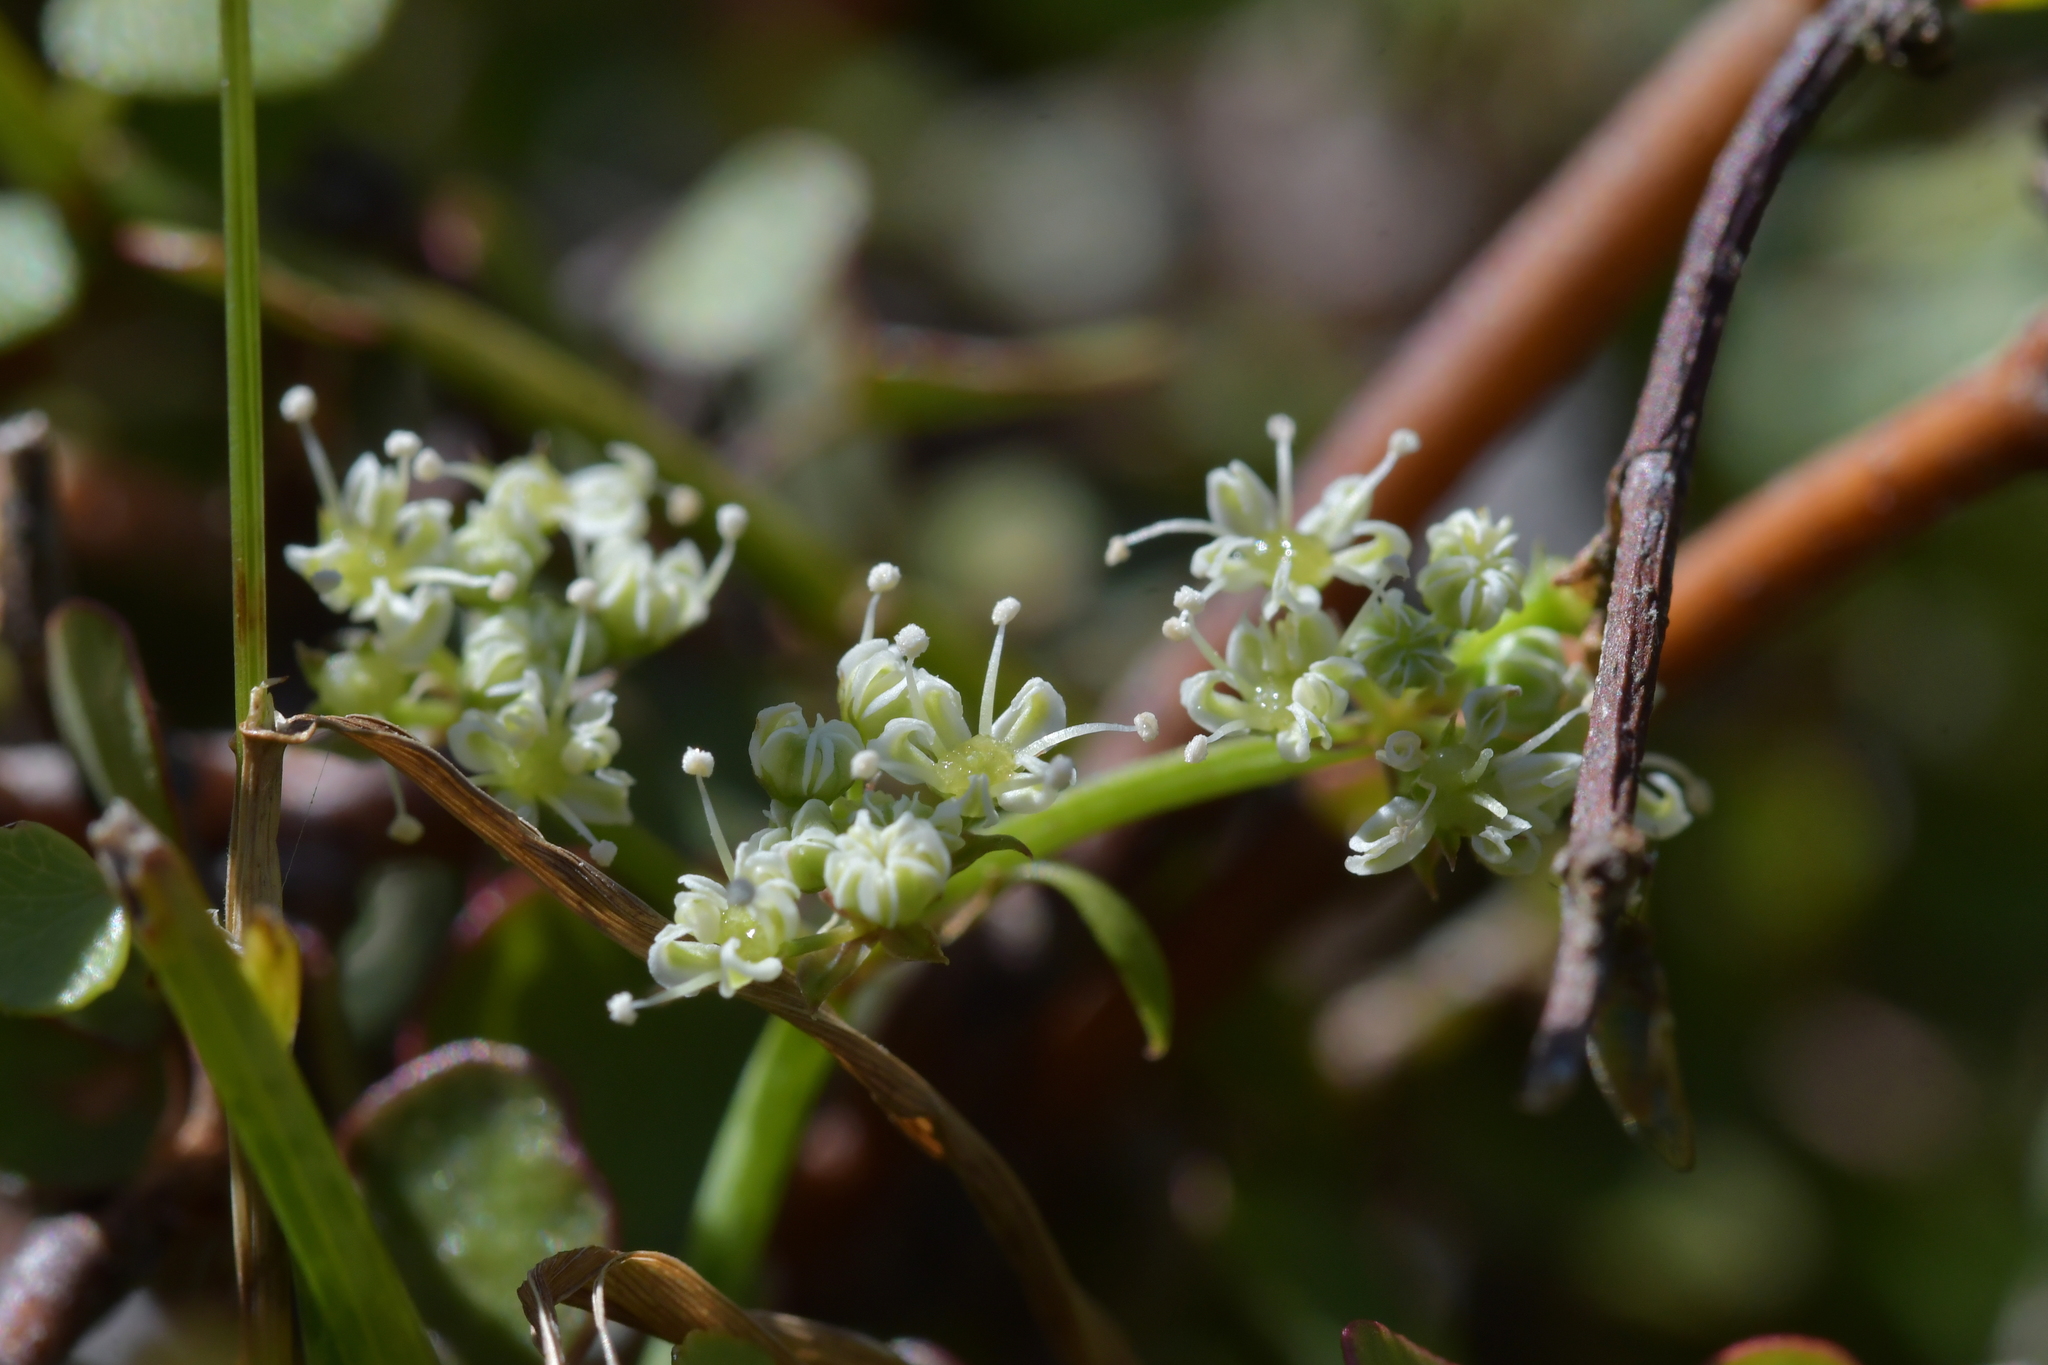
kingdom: Plantae
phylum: Tracheophyta
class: Magnoliopsida
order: Apiales
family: Apiaceae
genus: Scandia
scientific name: Scandia geniculata
